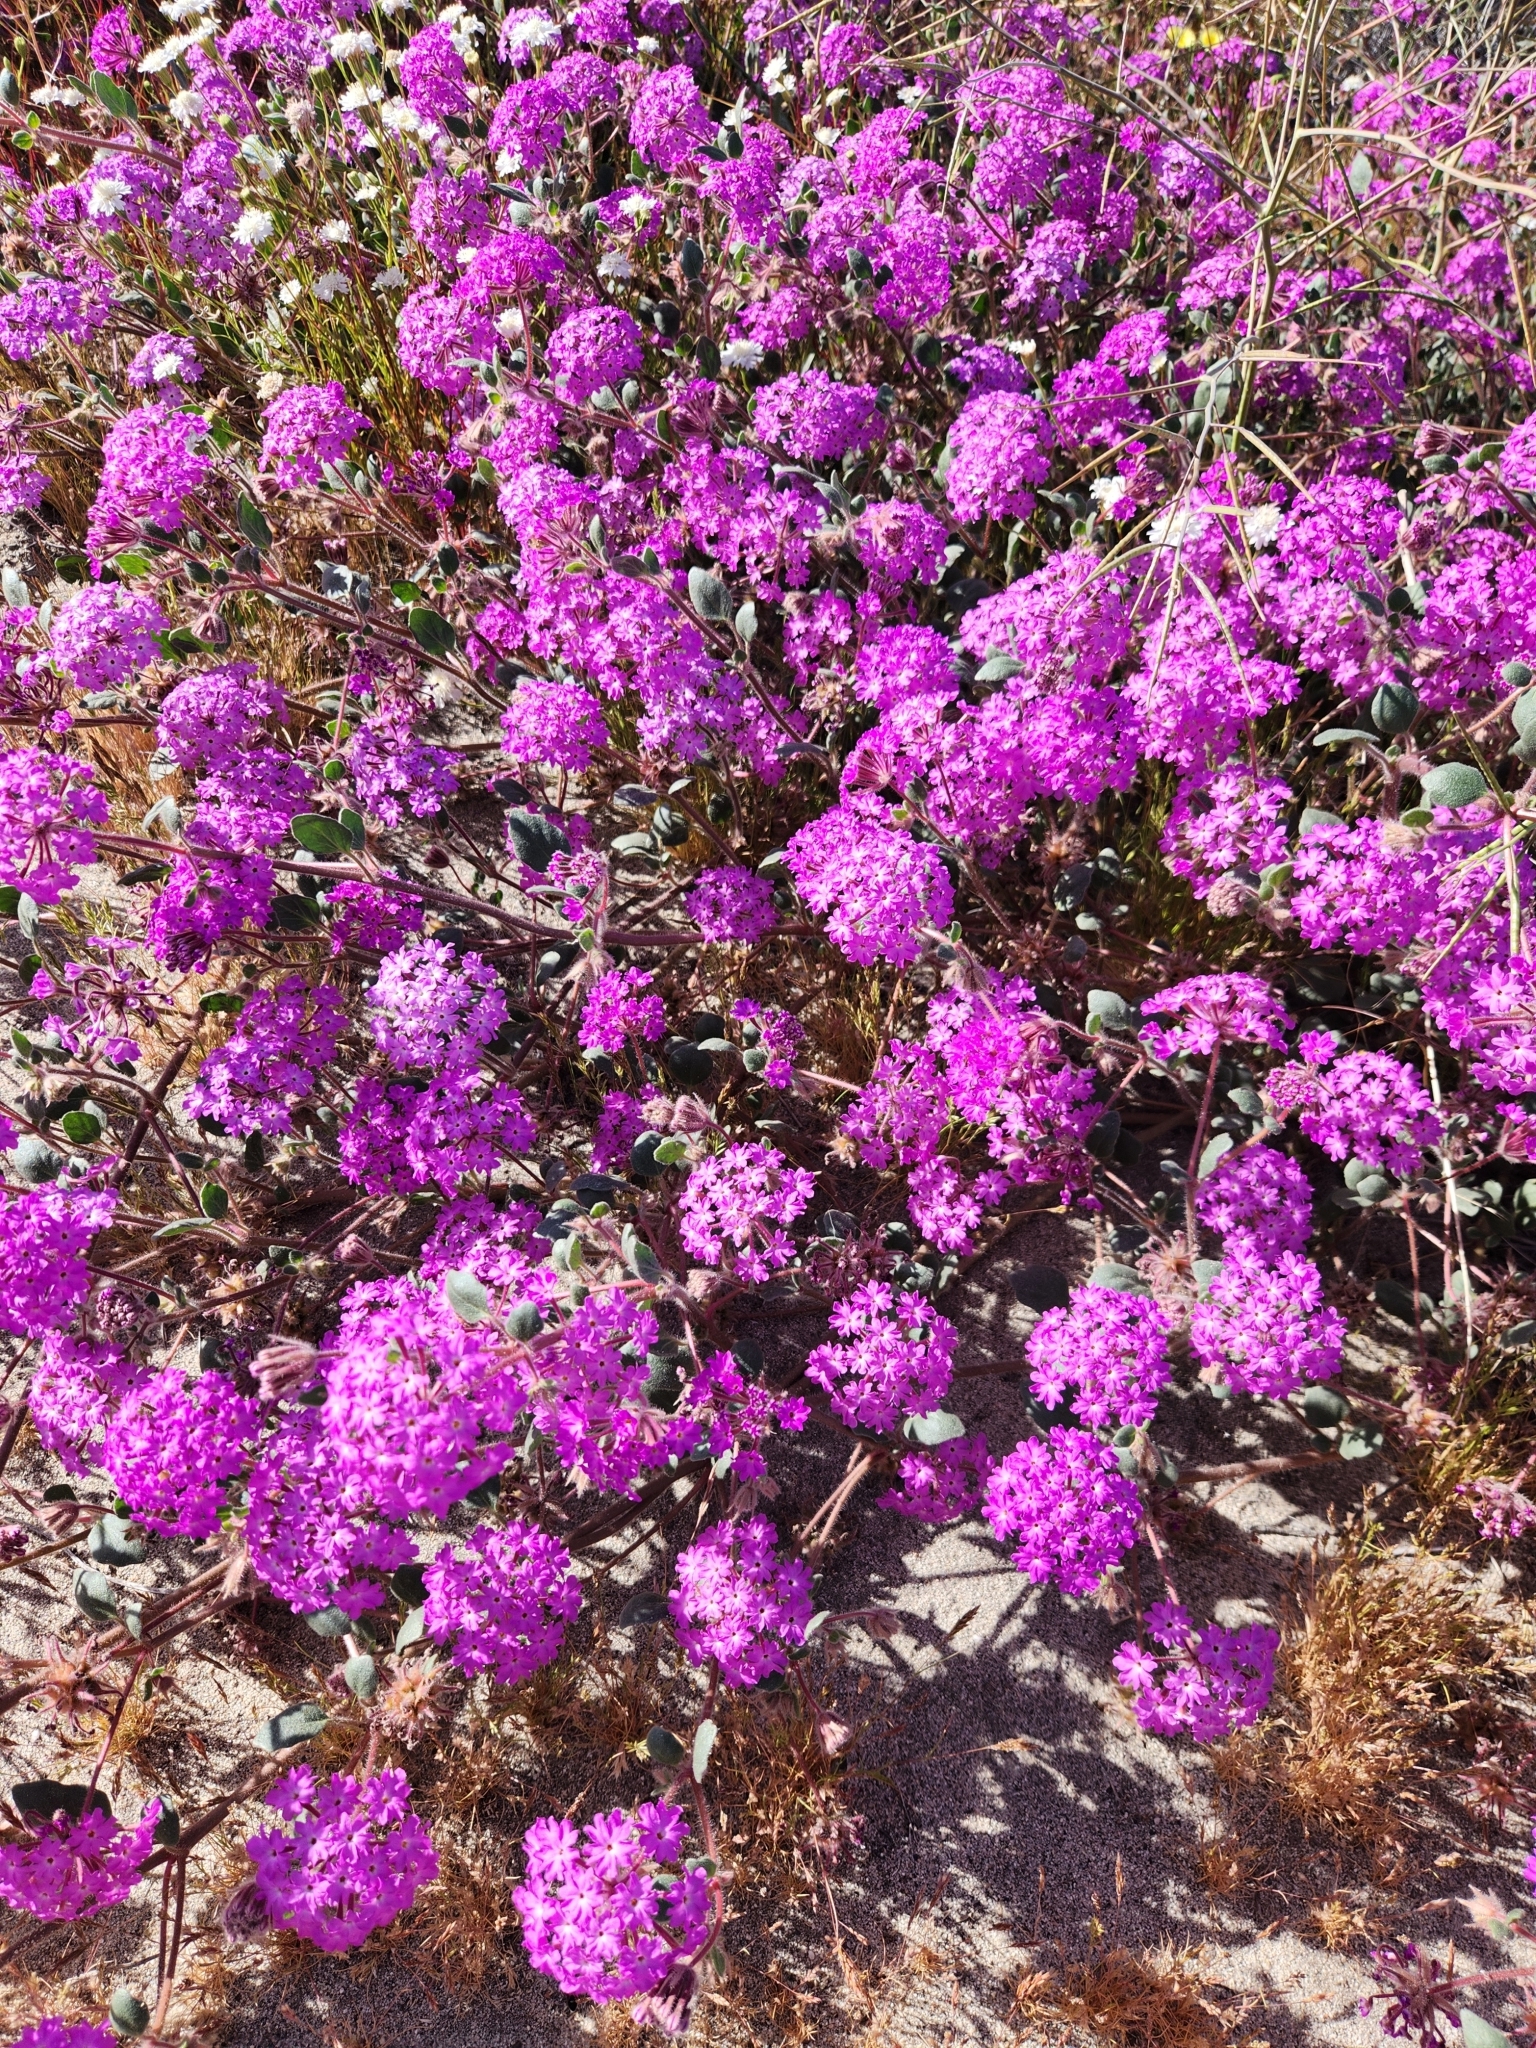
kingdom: Plantae
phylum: Tracheophyta
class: Magnoliopsida
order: Caryophyllales
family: Nyctaginaceae
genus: Abronia
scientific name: Abronia villosa
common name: Desert sand-verbena
